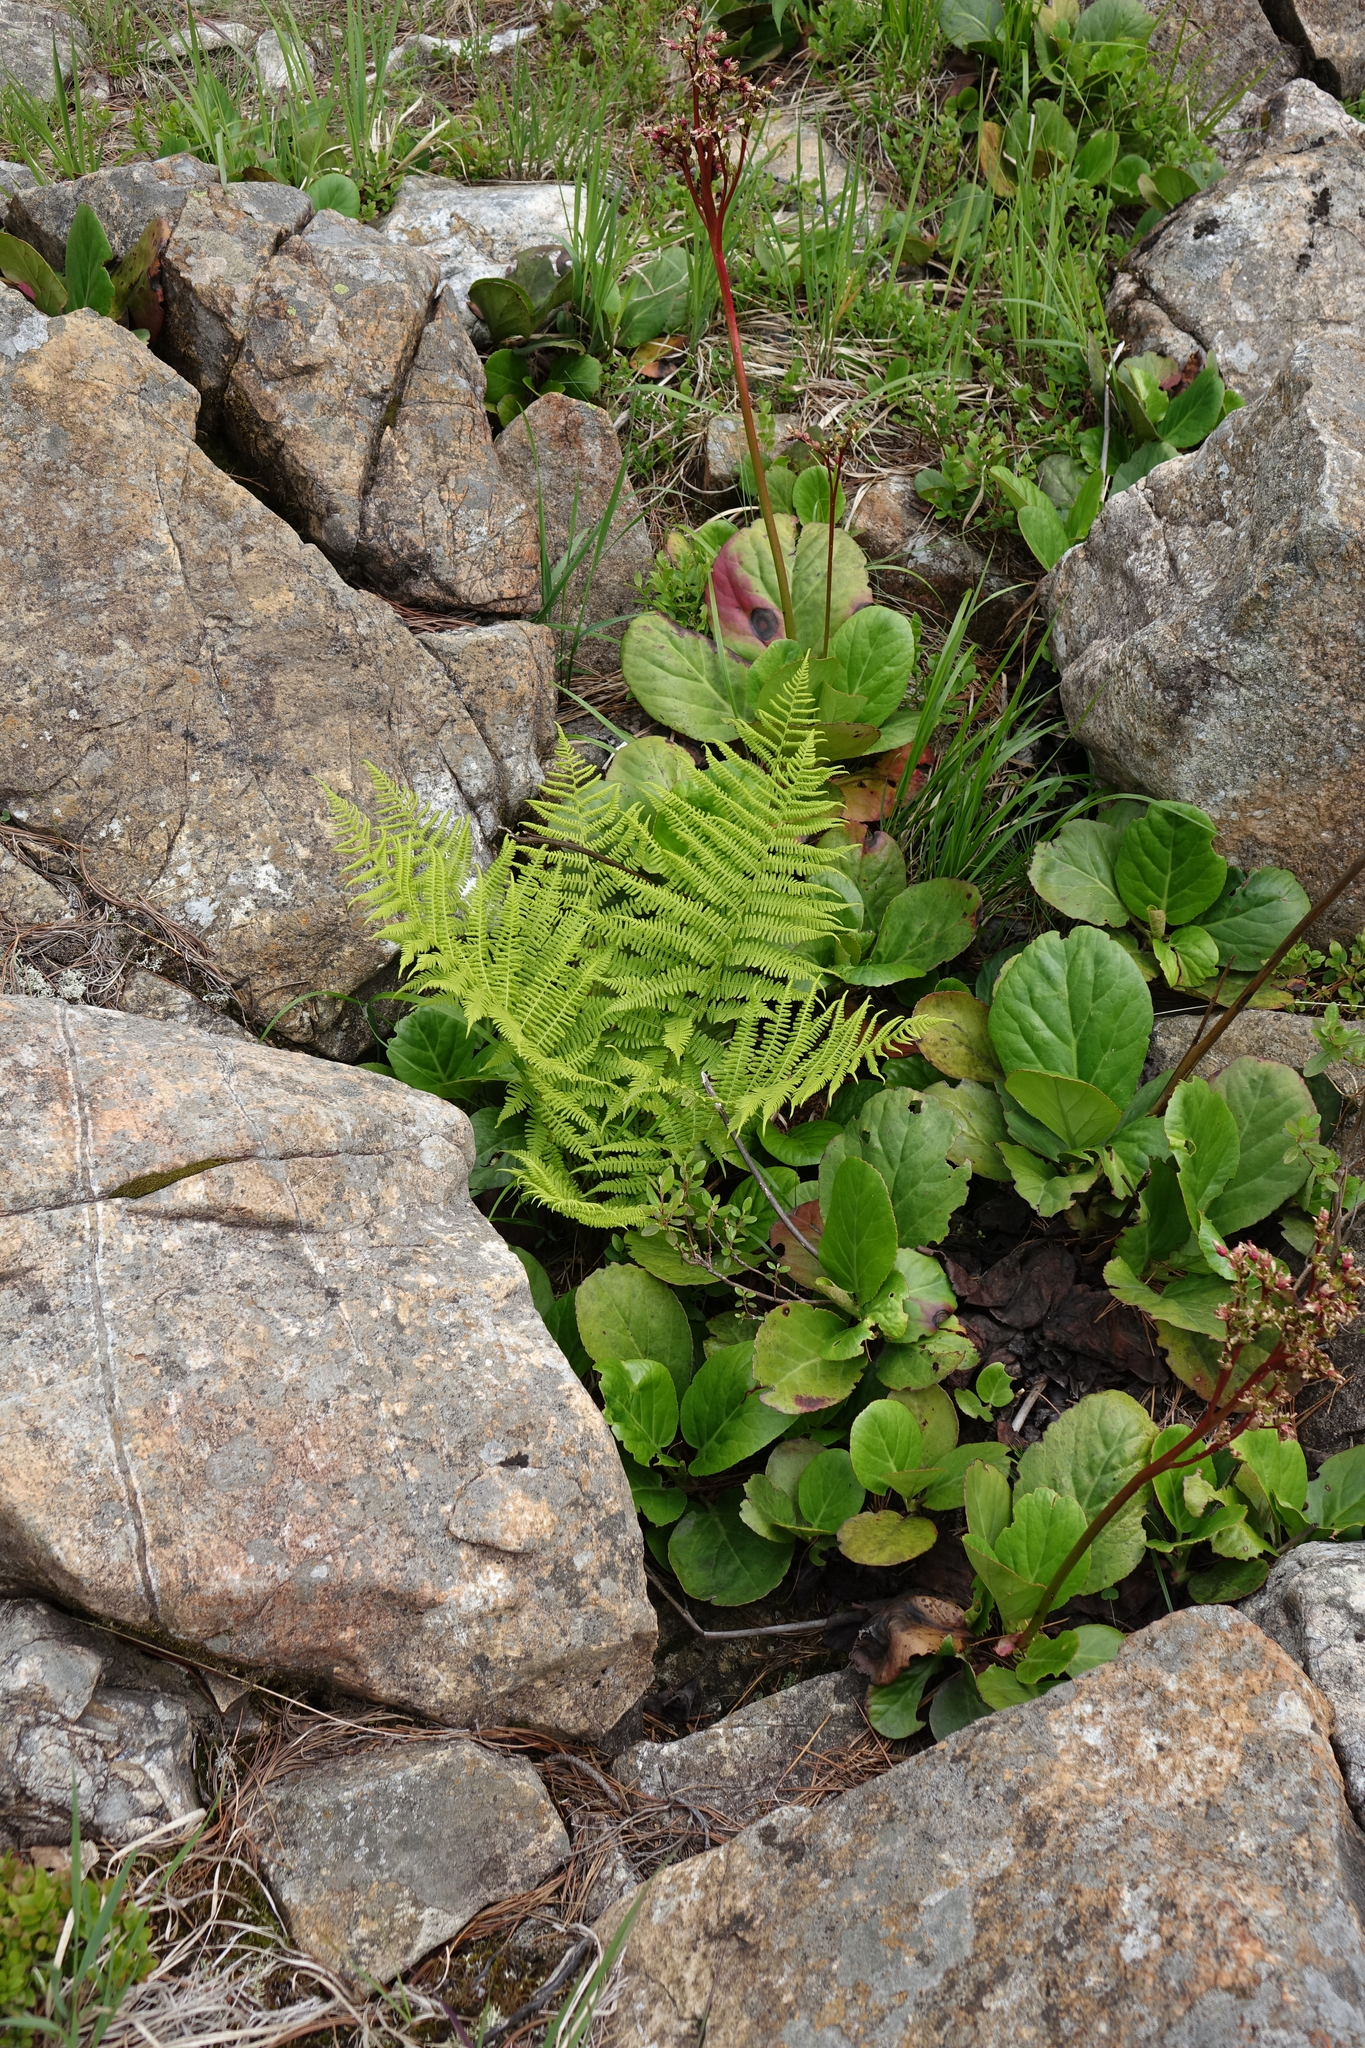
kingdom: Plantae
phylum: Tracheophyta
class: Magnoliopsida
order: Saxifragales
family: Saxifragaceae
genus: Bergenia
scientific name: Bergenia crassifolia
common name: Elephant-ears
